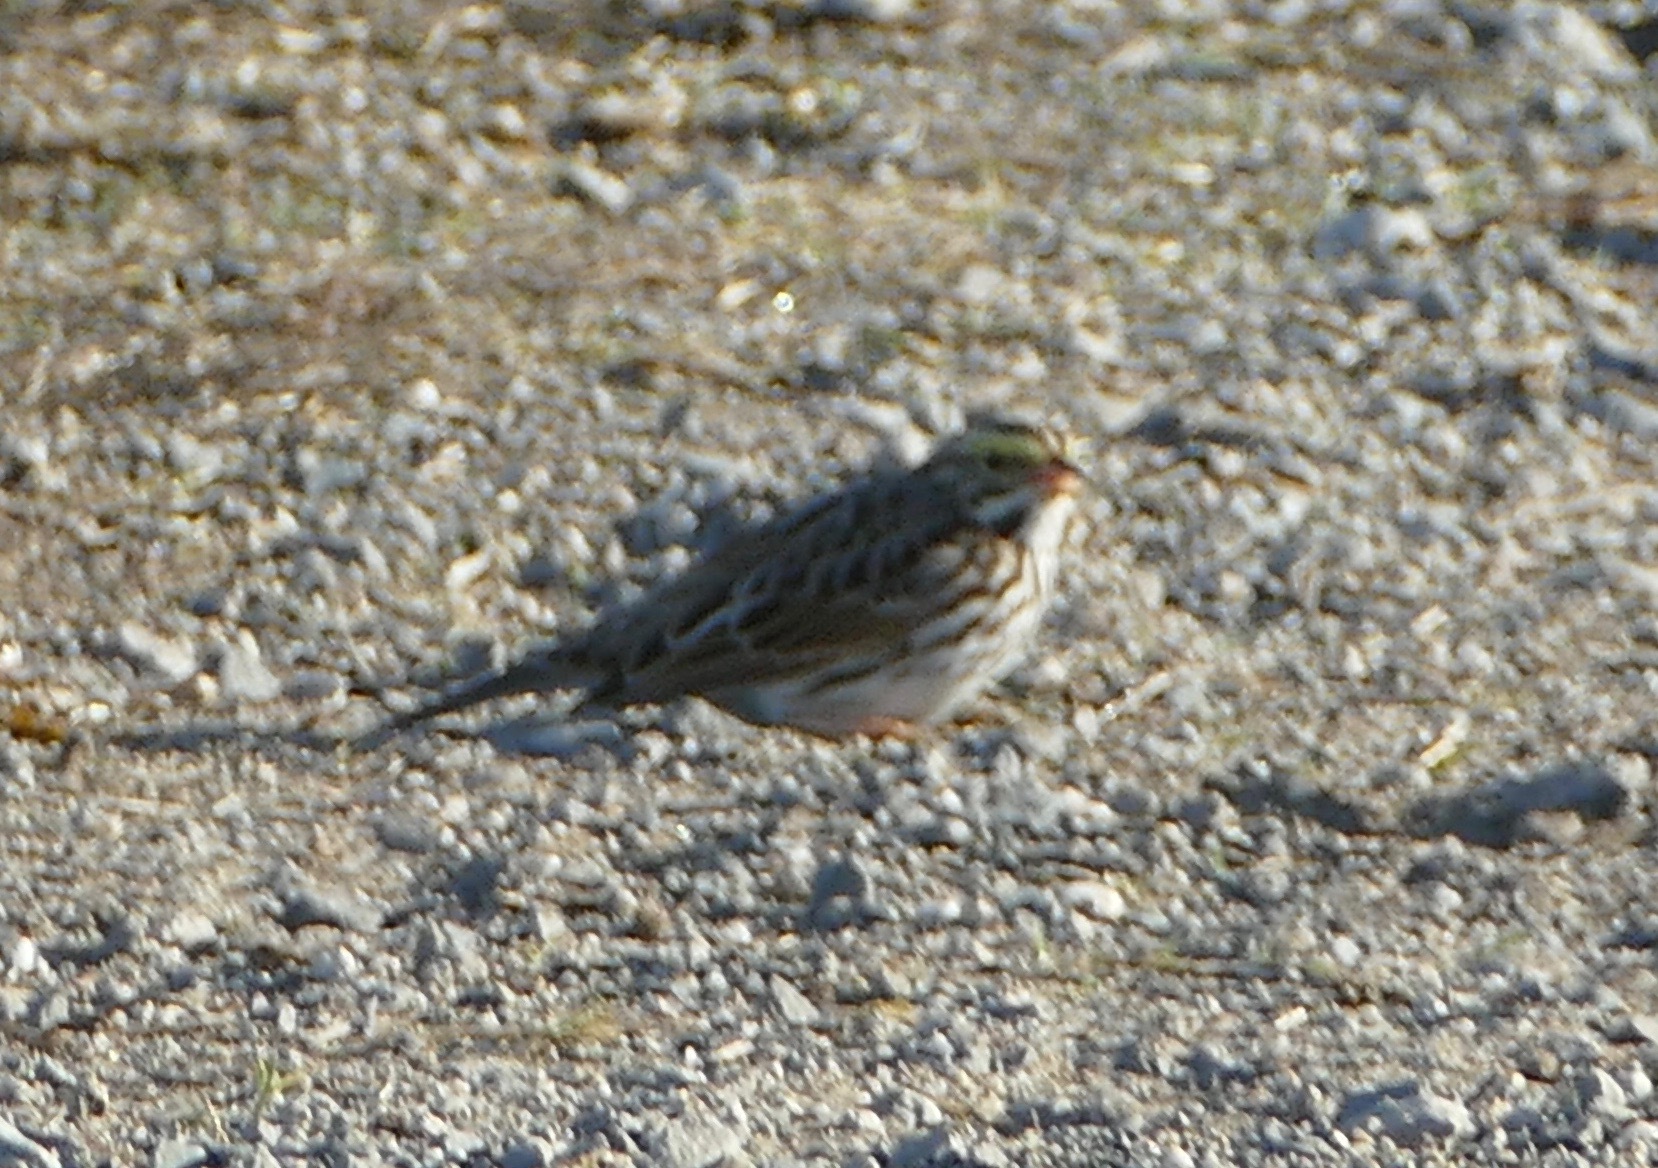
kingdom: Animalia
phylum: Chordata
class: Aves
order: Passeriformes
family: Passerellidae
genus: Passerculus
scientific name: Passerculus sandwichensis
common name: Savannah sparrow
